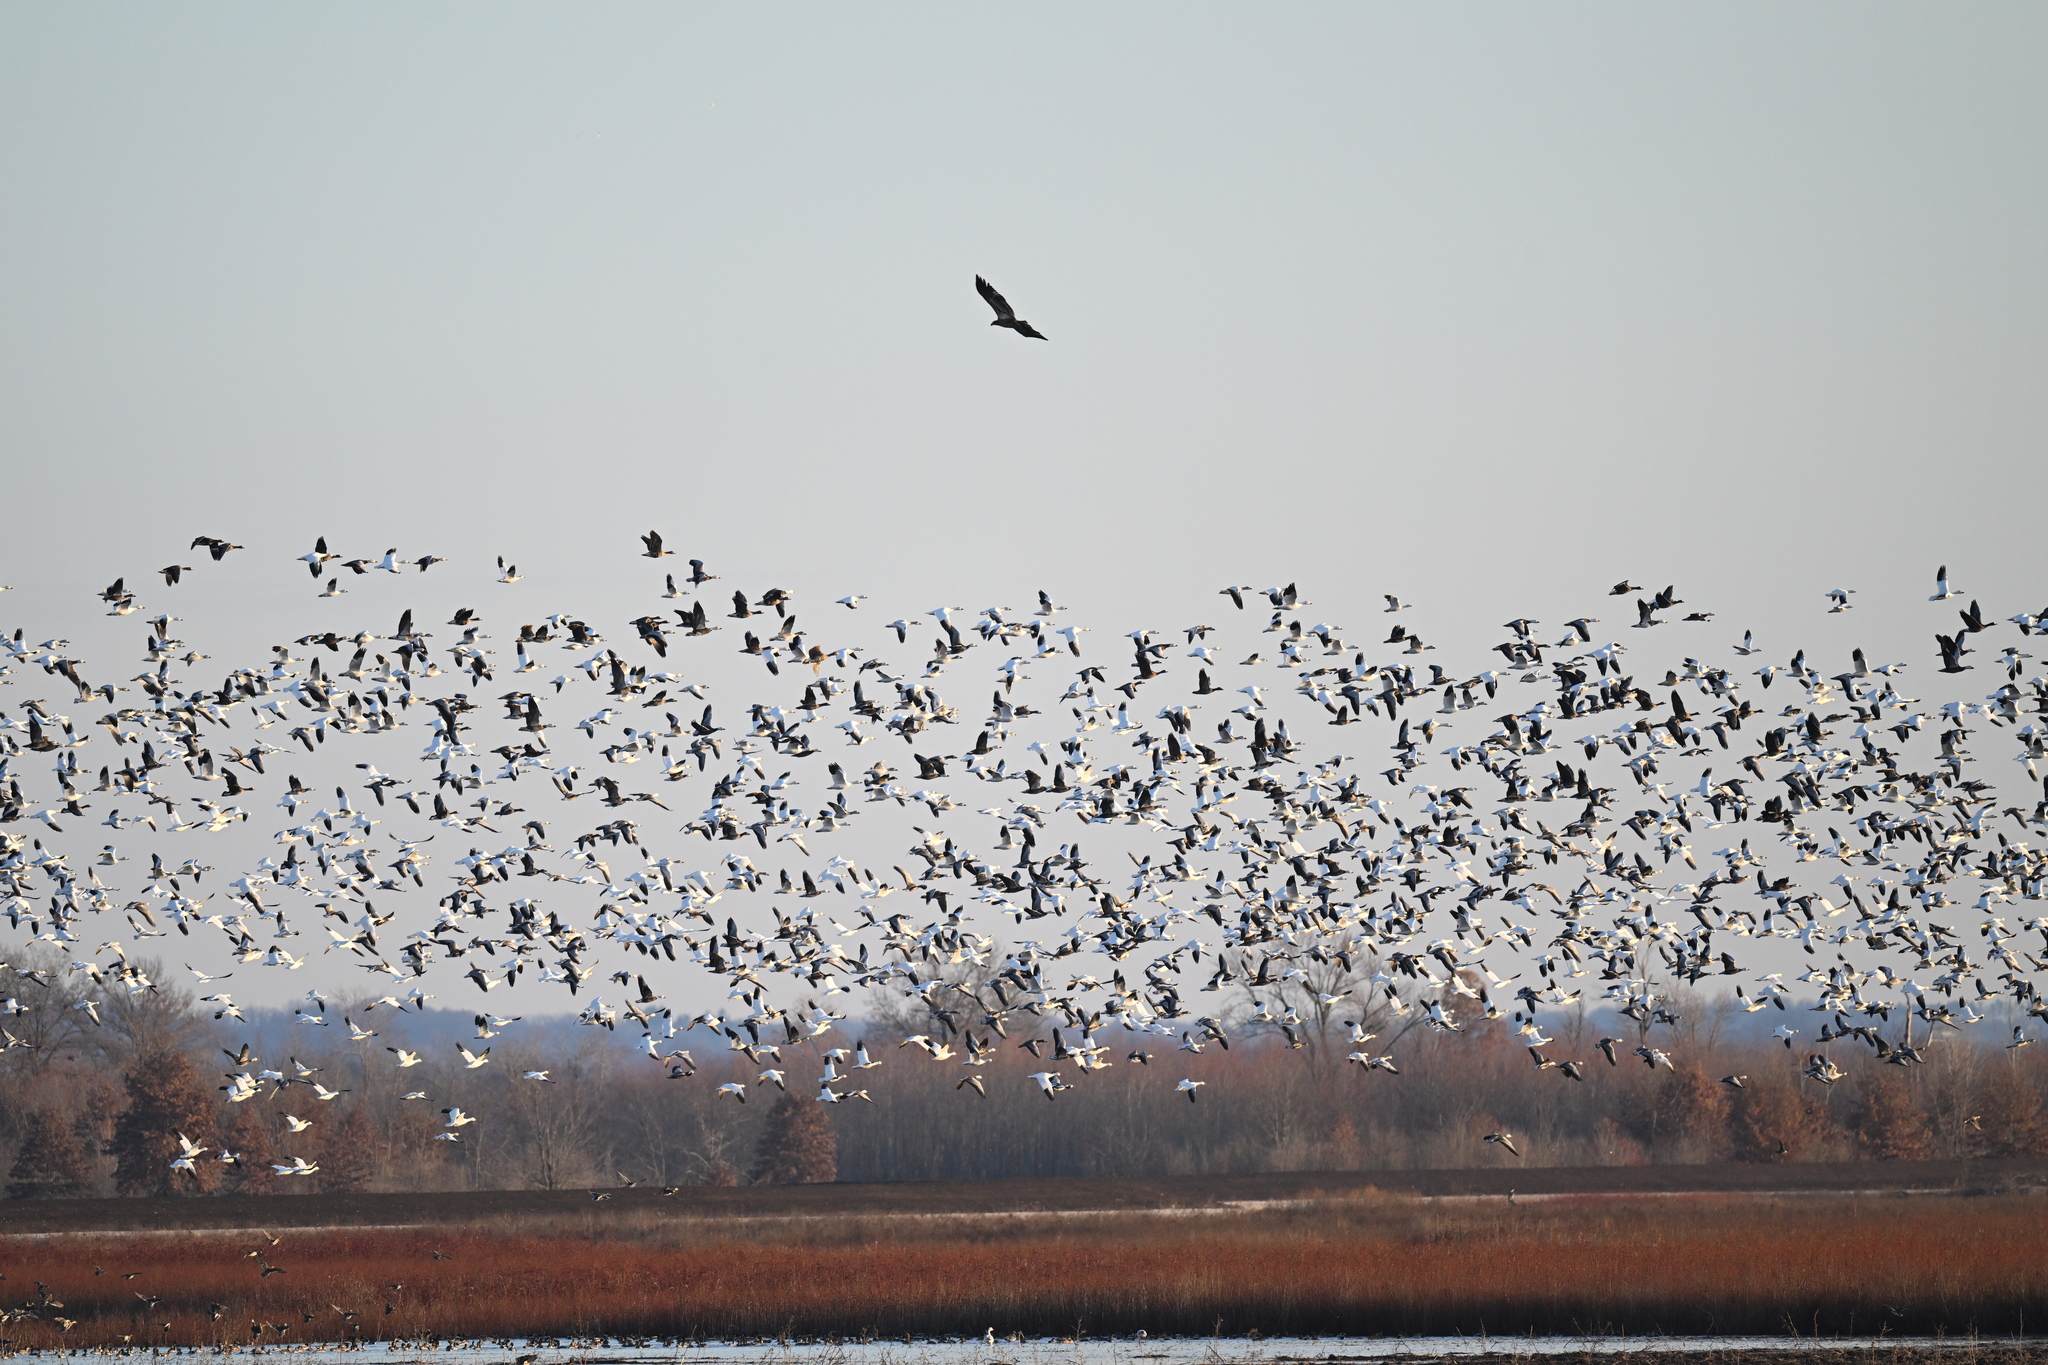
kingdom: Animalia
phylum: Chordata
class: Aves
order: Anseriformes
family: Anatidae
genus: Anser
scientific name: Anser caerulescens
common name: Snow goose
